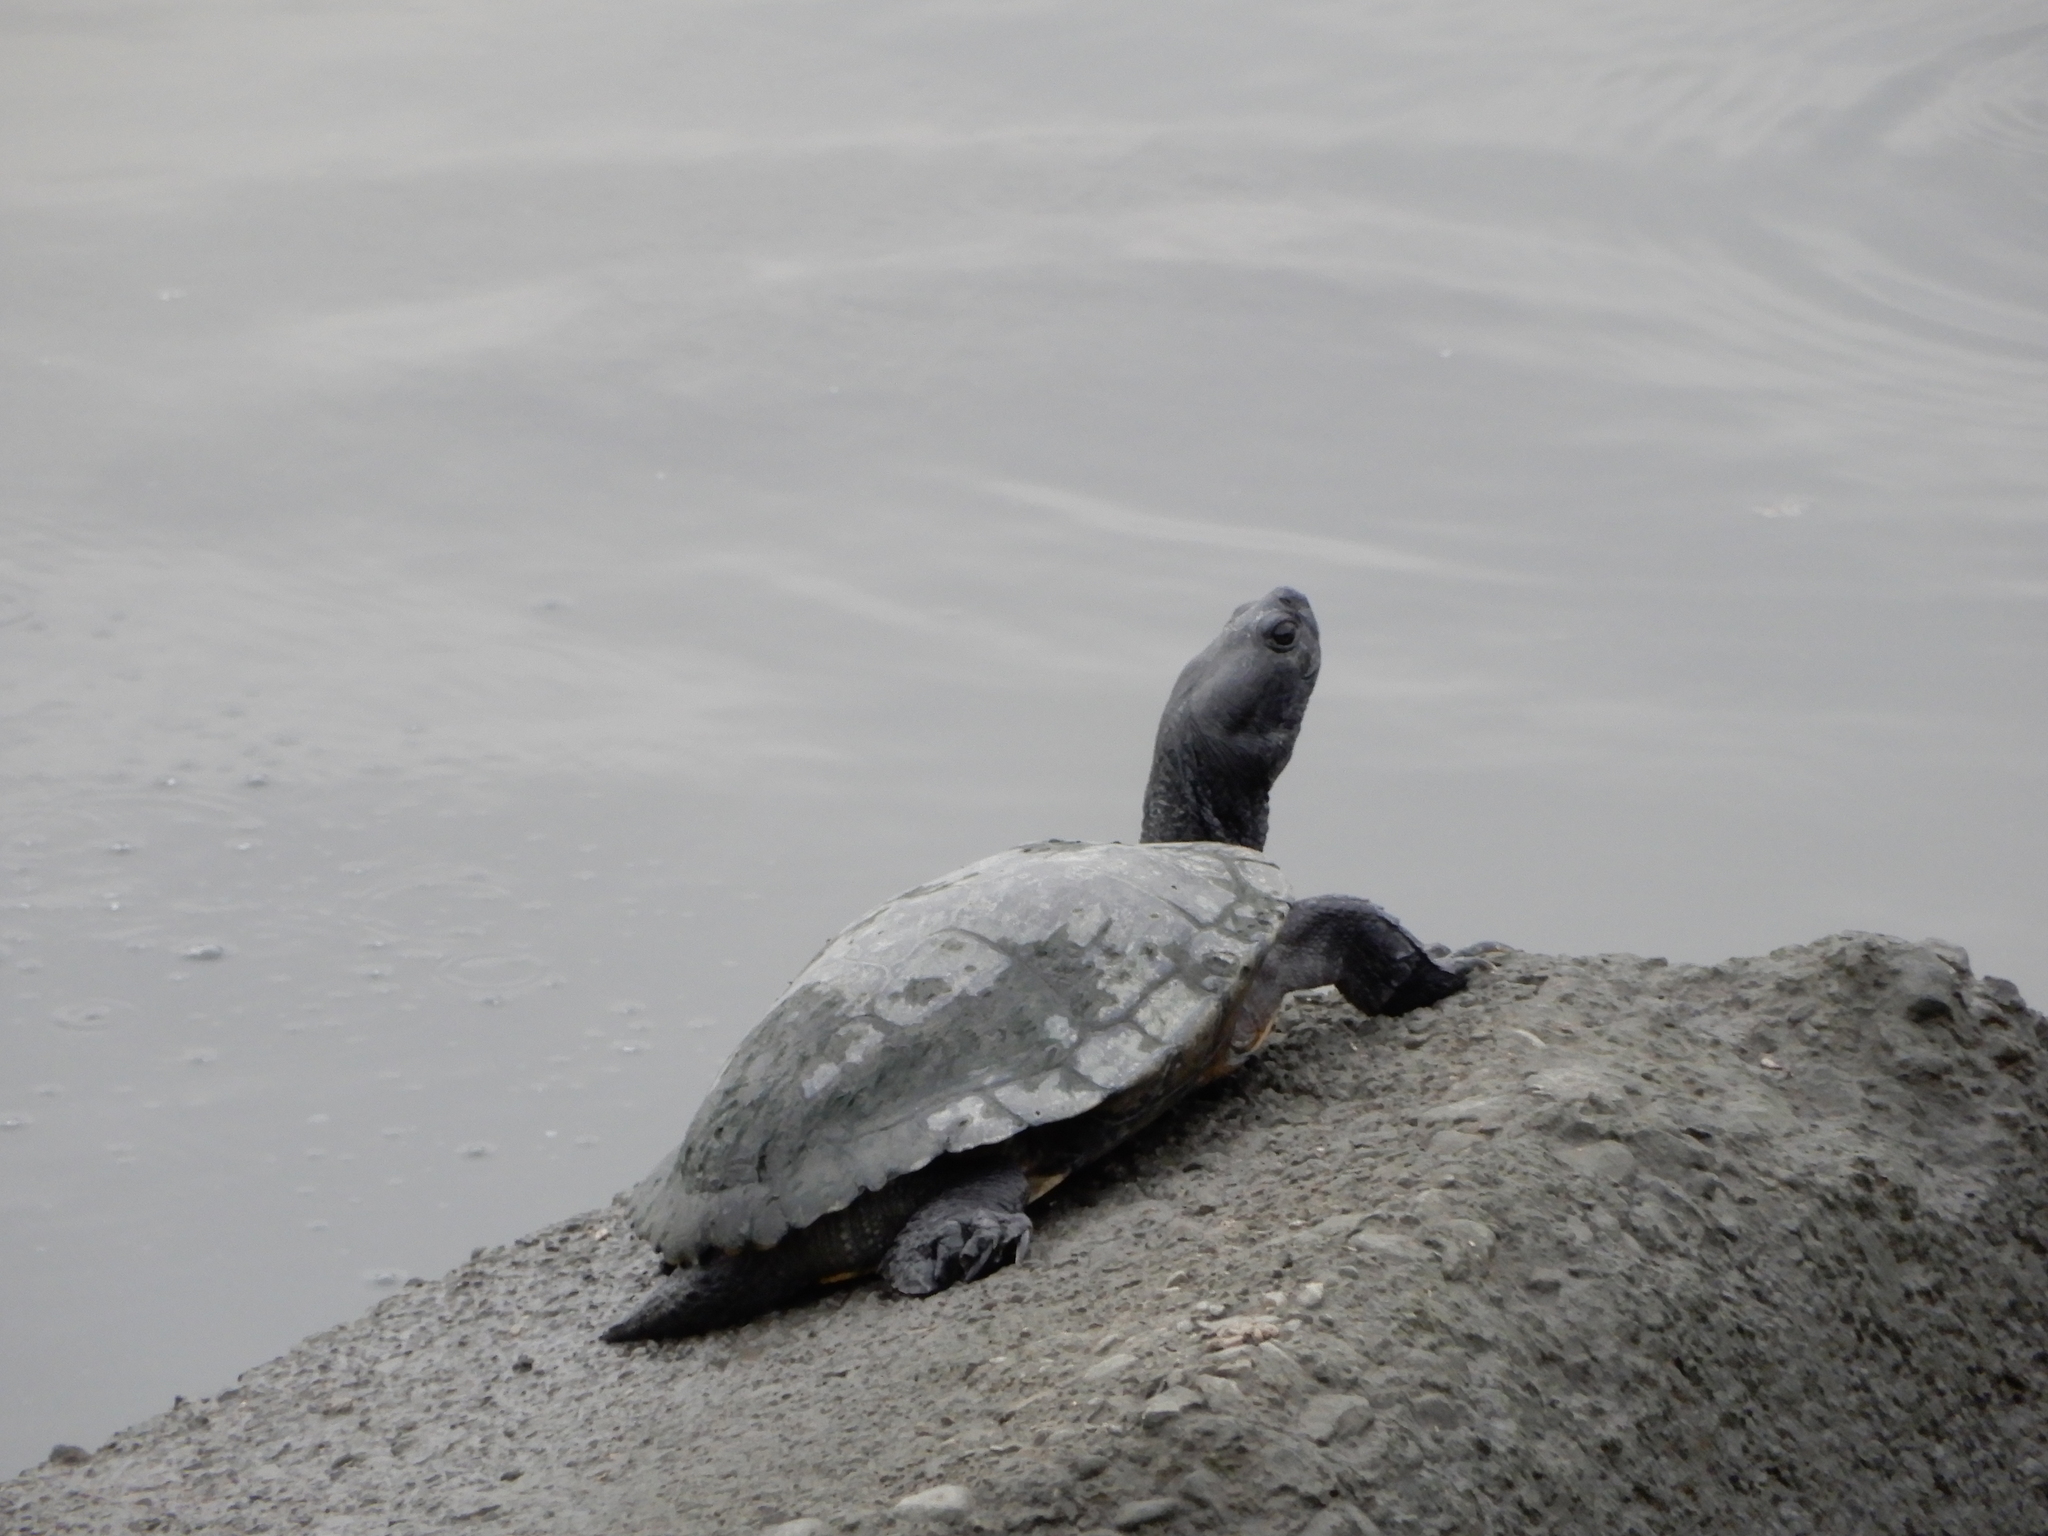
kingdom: Animalia
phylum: Chordata
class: Testudines
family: Emydidae
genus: Trachemys
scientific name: Trachemys scripta
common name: Slider
